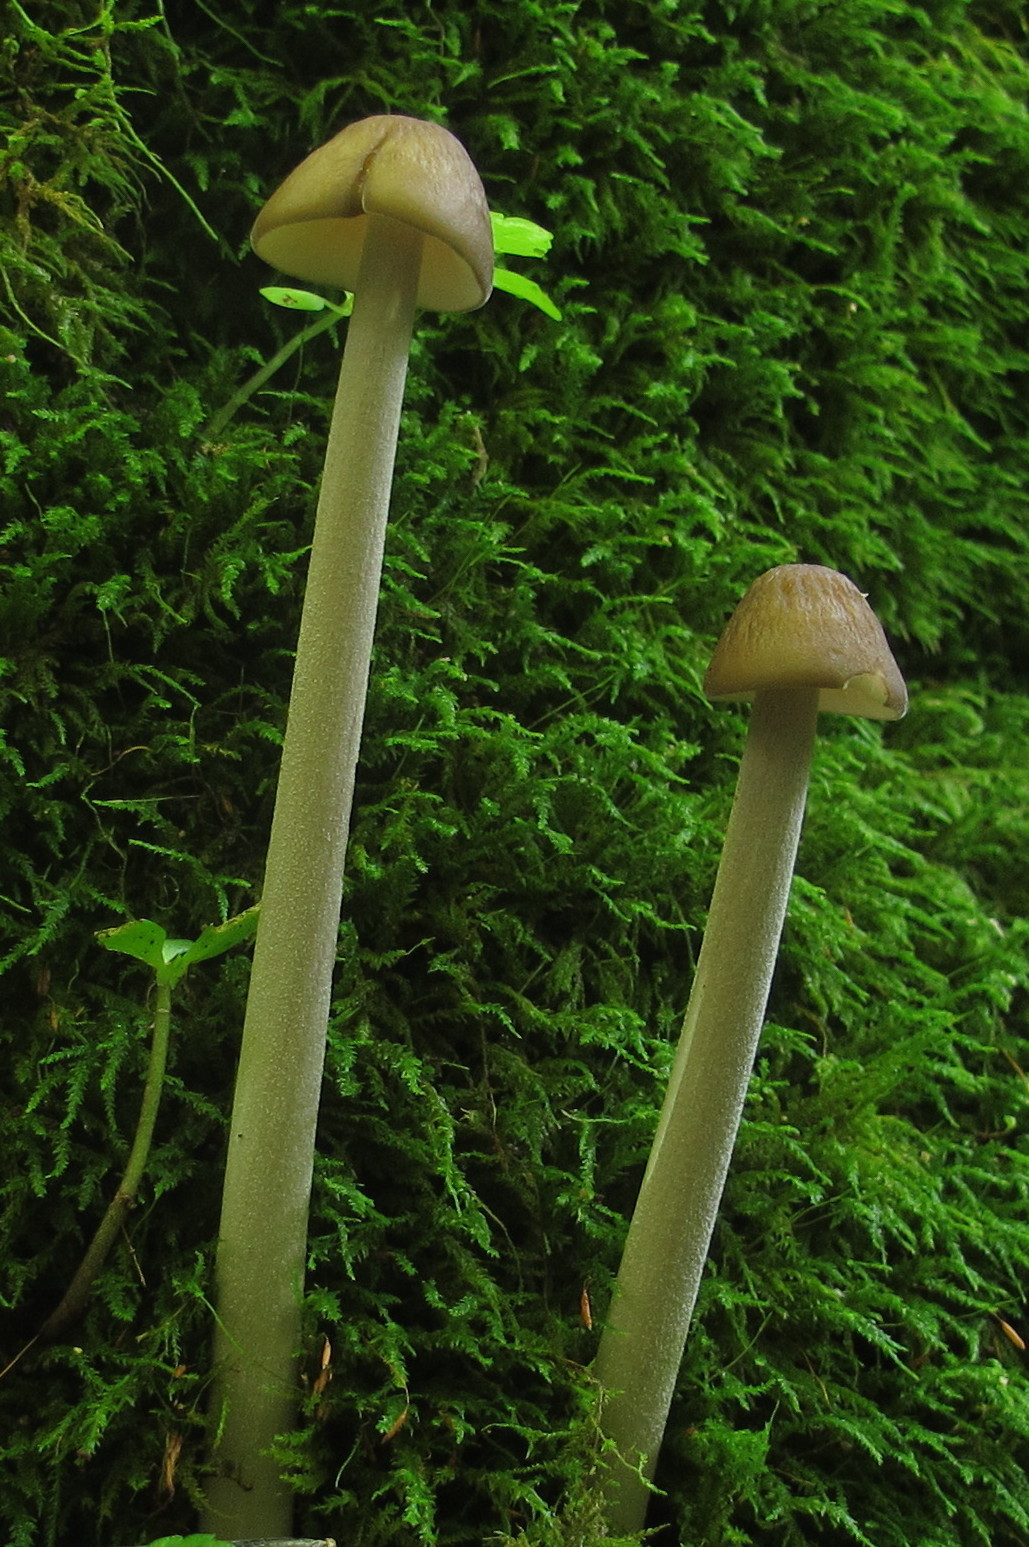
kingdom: Fungi
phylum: Basidiomycota
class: Agaricomycetes
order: Agaricales
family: Physalacriaceae
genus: Hymenopellis
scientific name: Hymenopellis furfuracea
